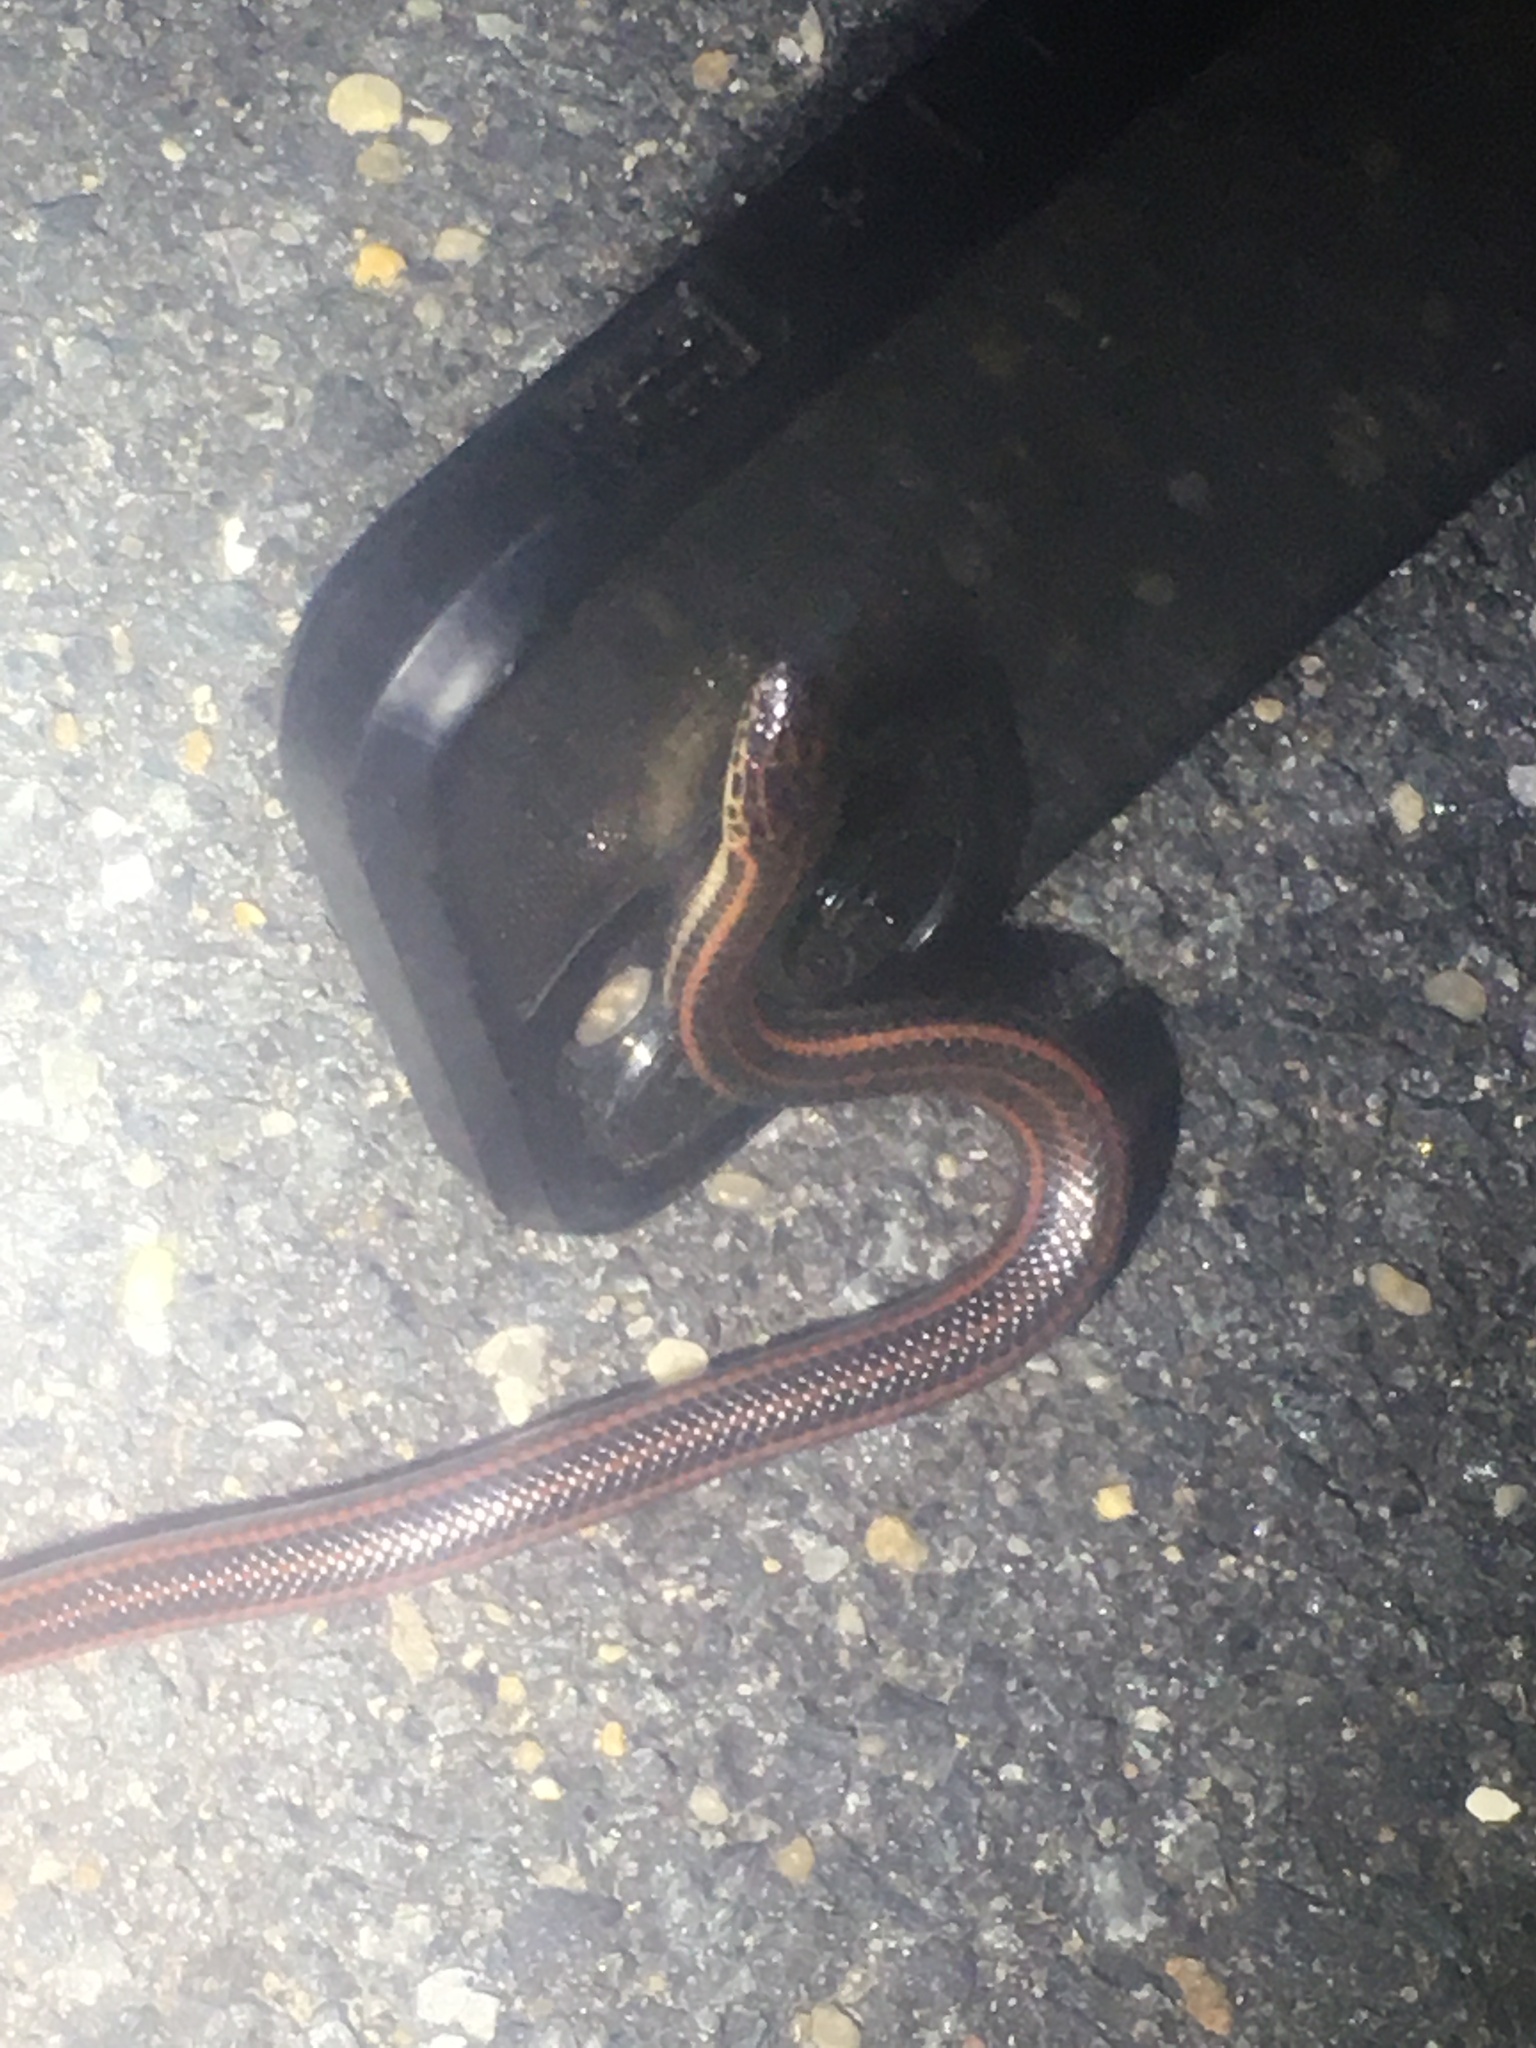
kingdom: Animalia
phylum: Chordata
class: Squamata
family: Colubridae
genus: Farancia
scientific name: Farancia erytrogramma
